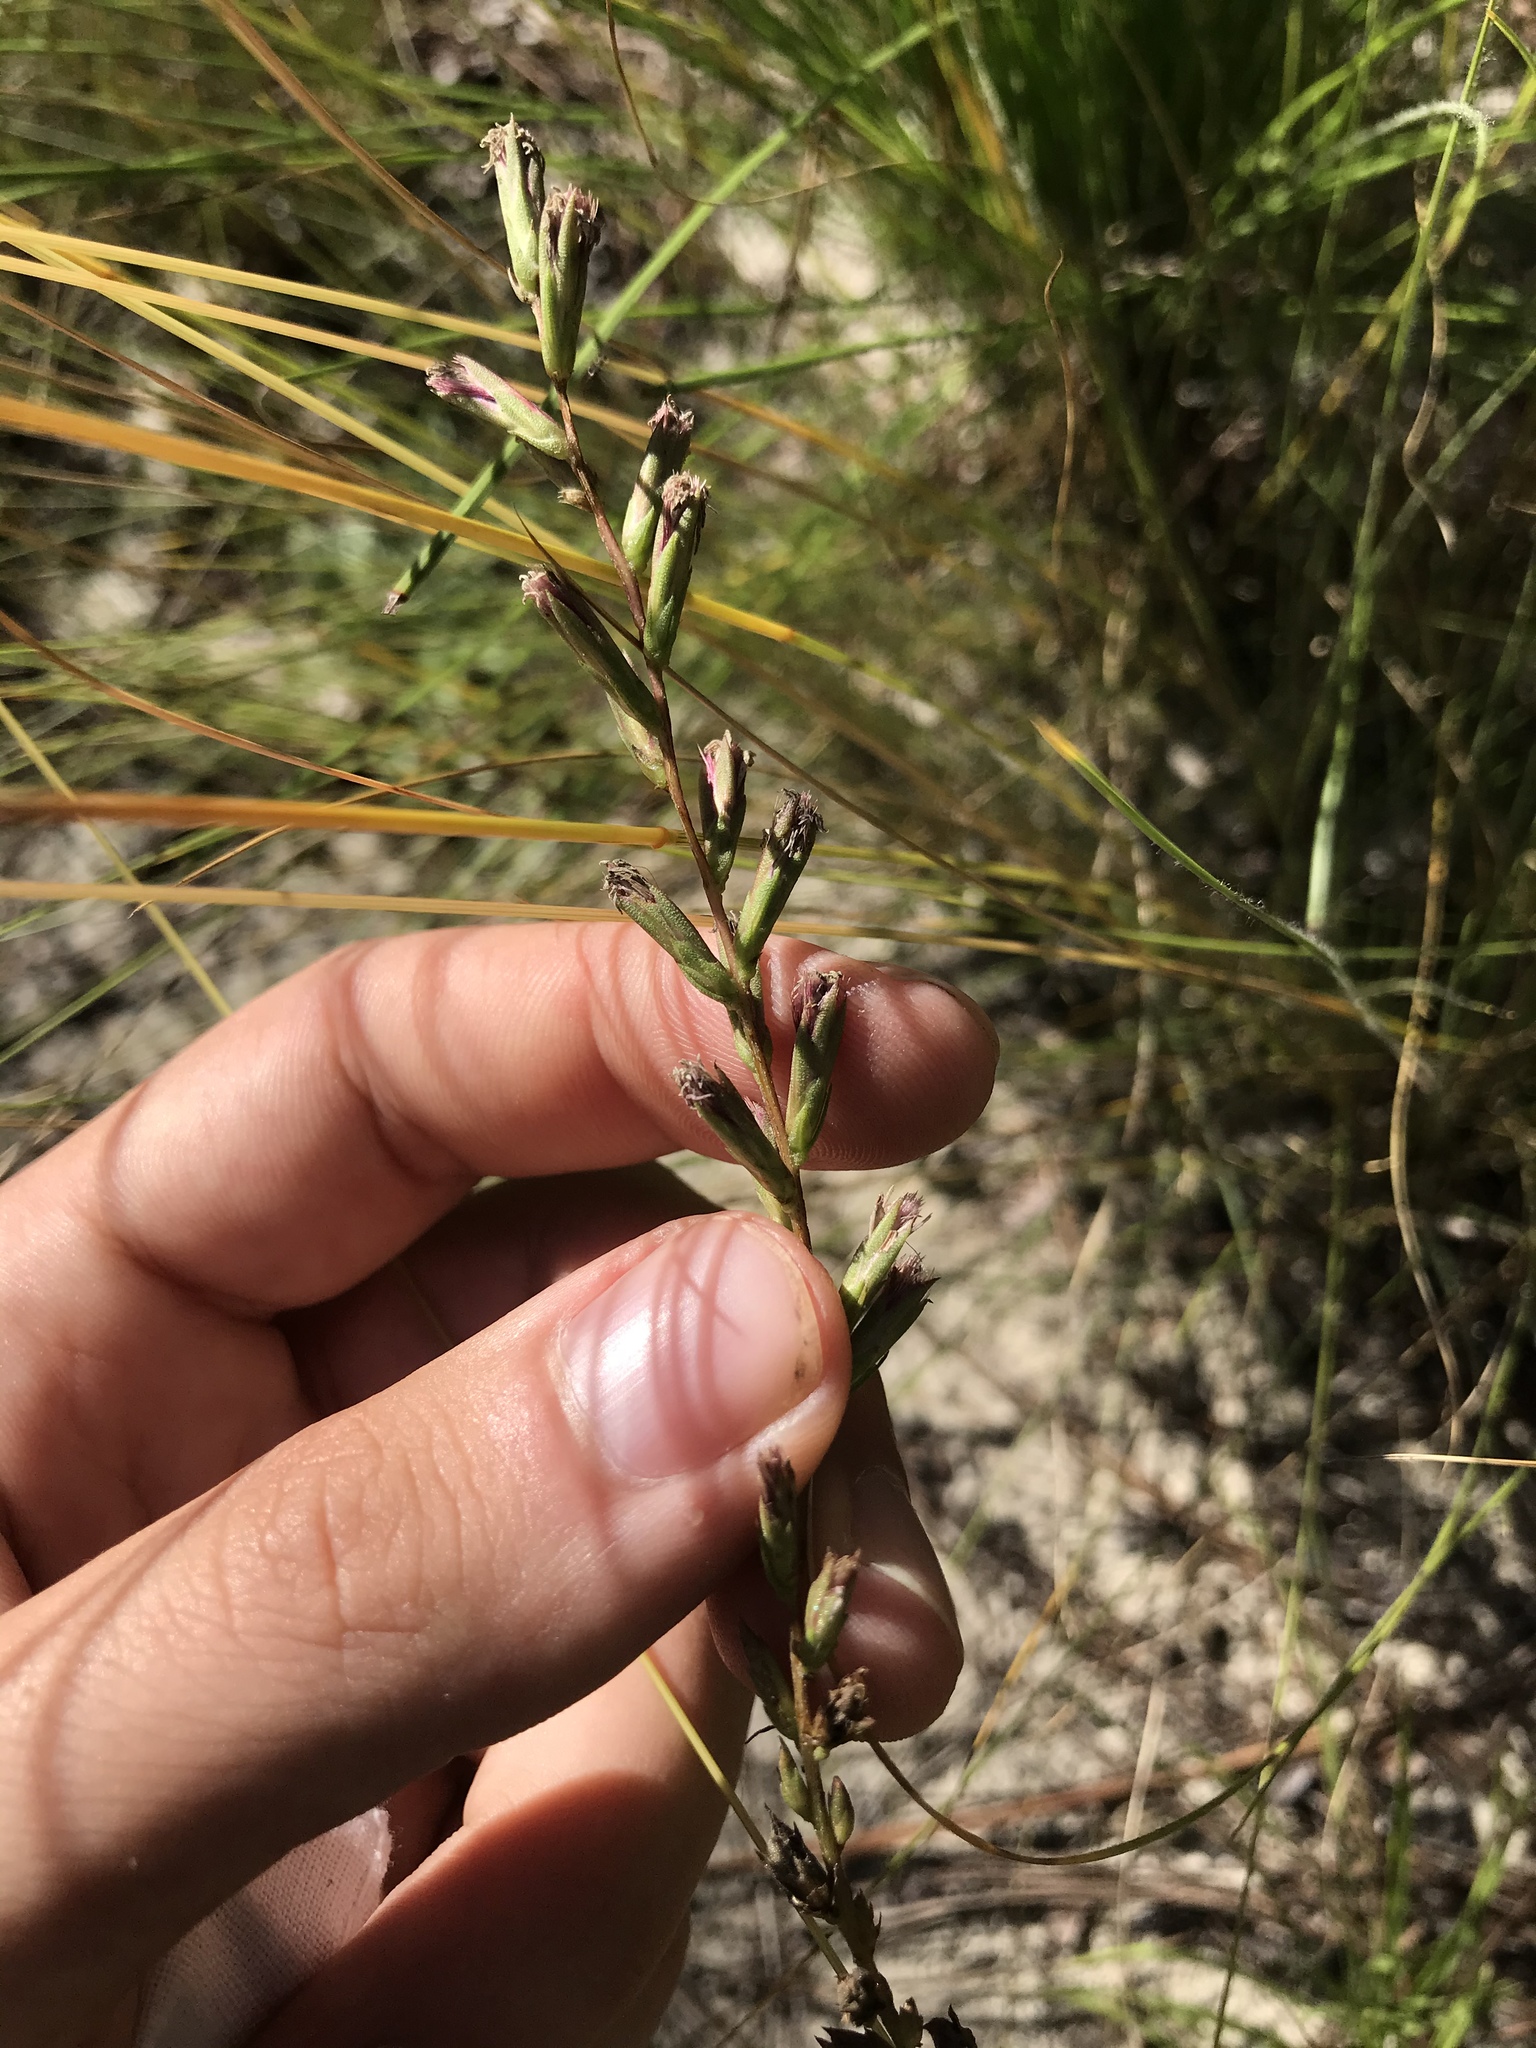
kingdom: Plantae
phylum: Tracheophyta
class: Magnoliopsida
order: Asterales
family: Asteraceae
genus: Liatris
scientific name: Liatris cokeri
